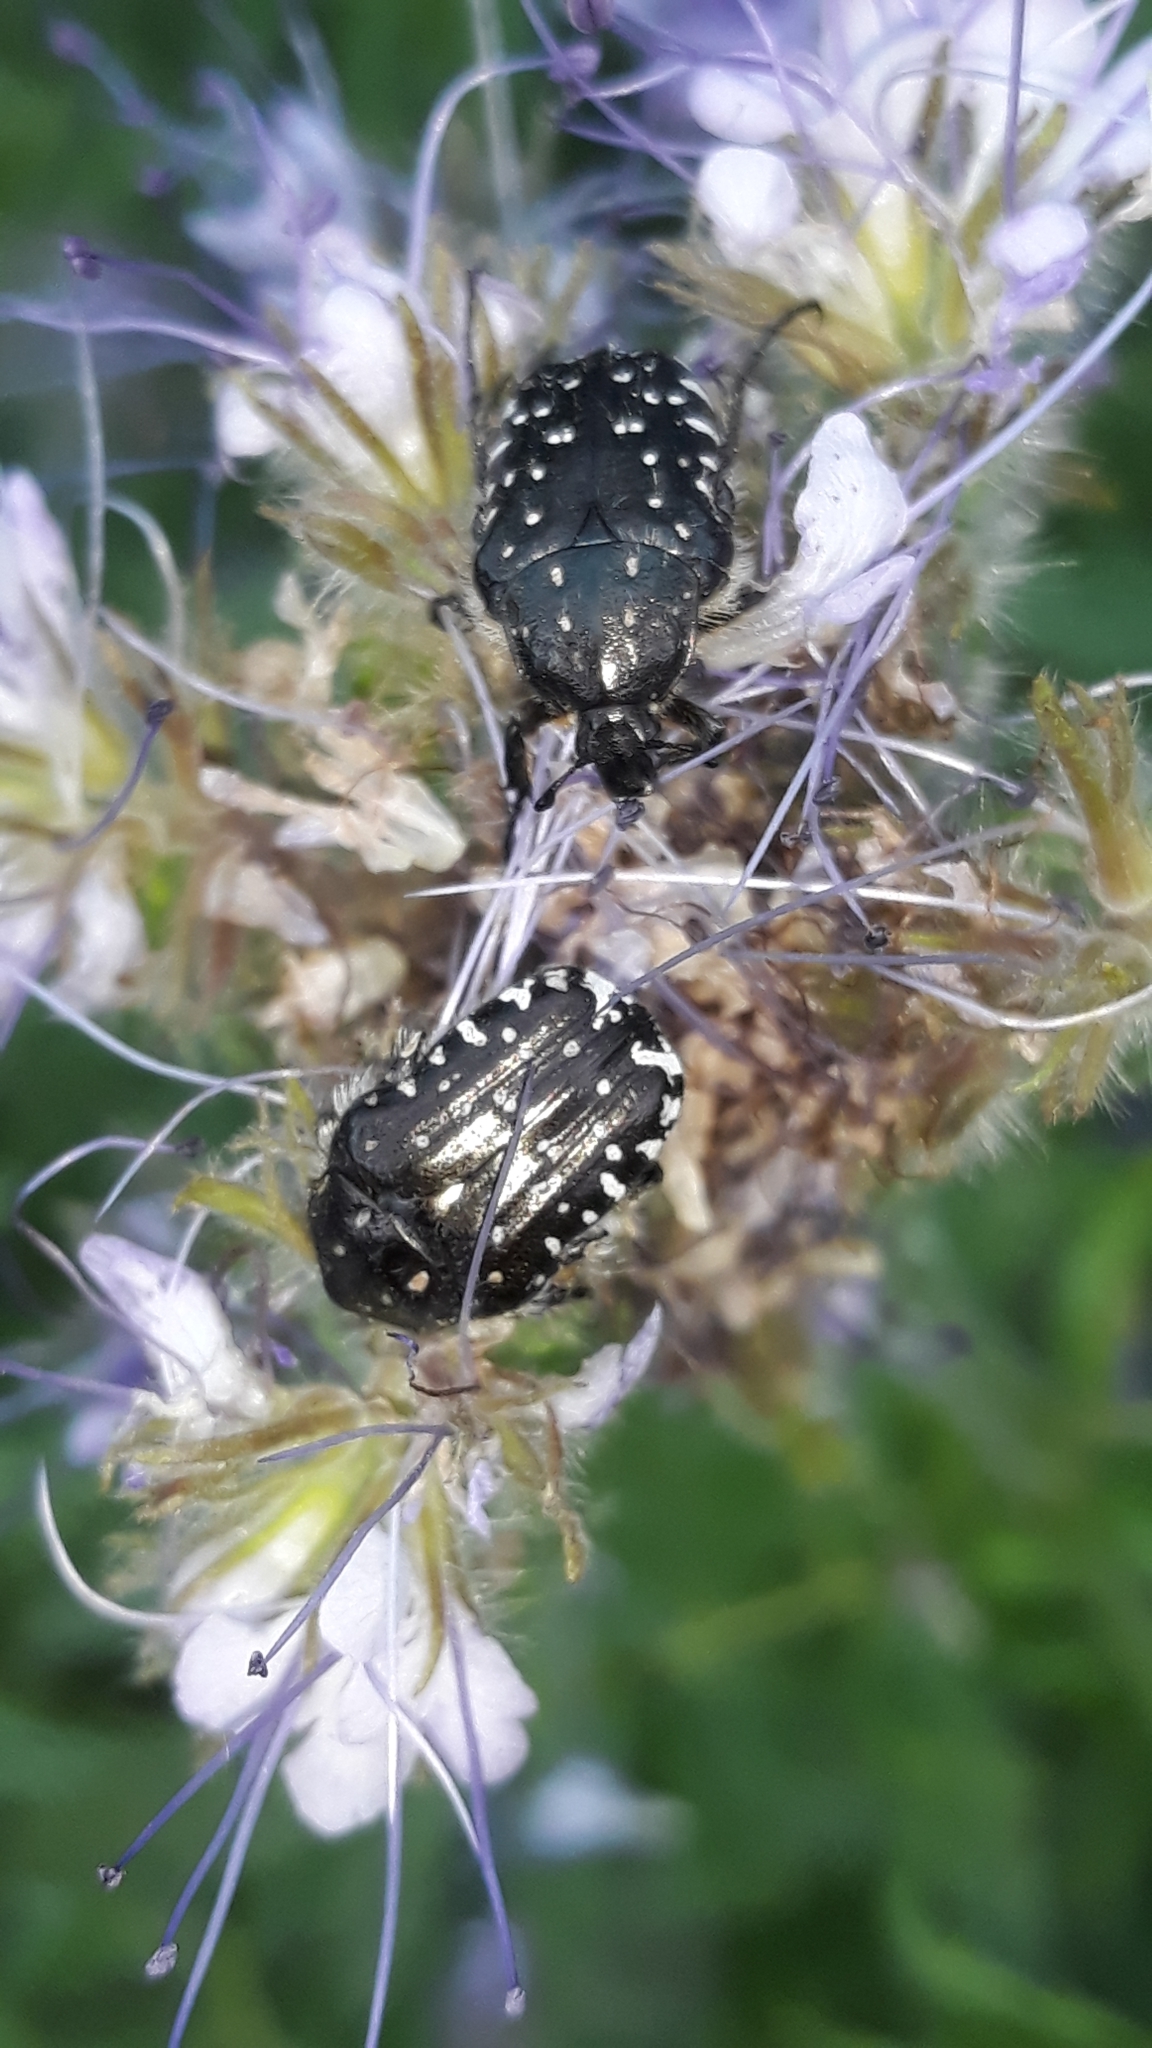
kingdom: Animalia
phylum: Arthropoda
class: Insecta
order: Coleoptera
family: Scarabaeidae
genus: Oxythyrea
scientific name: Oxythyrea funesta
